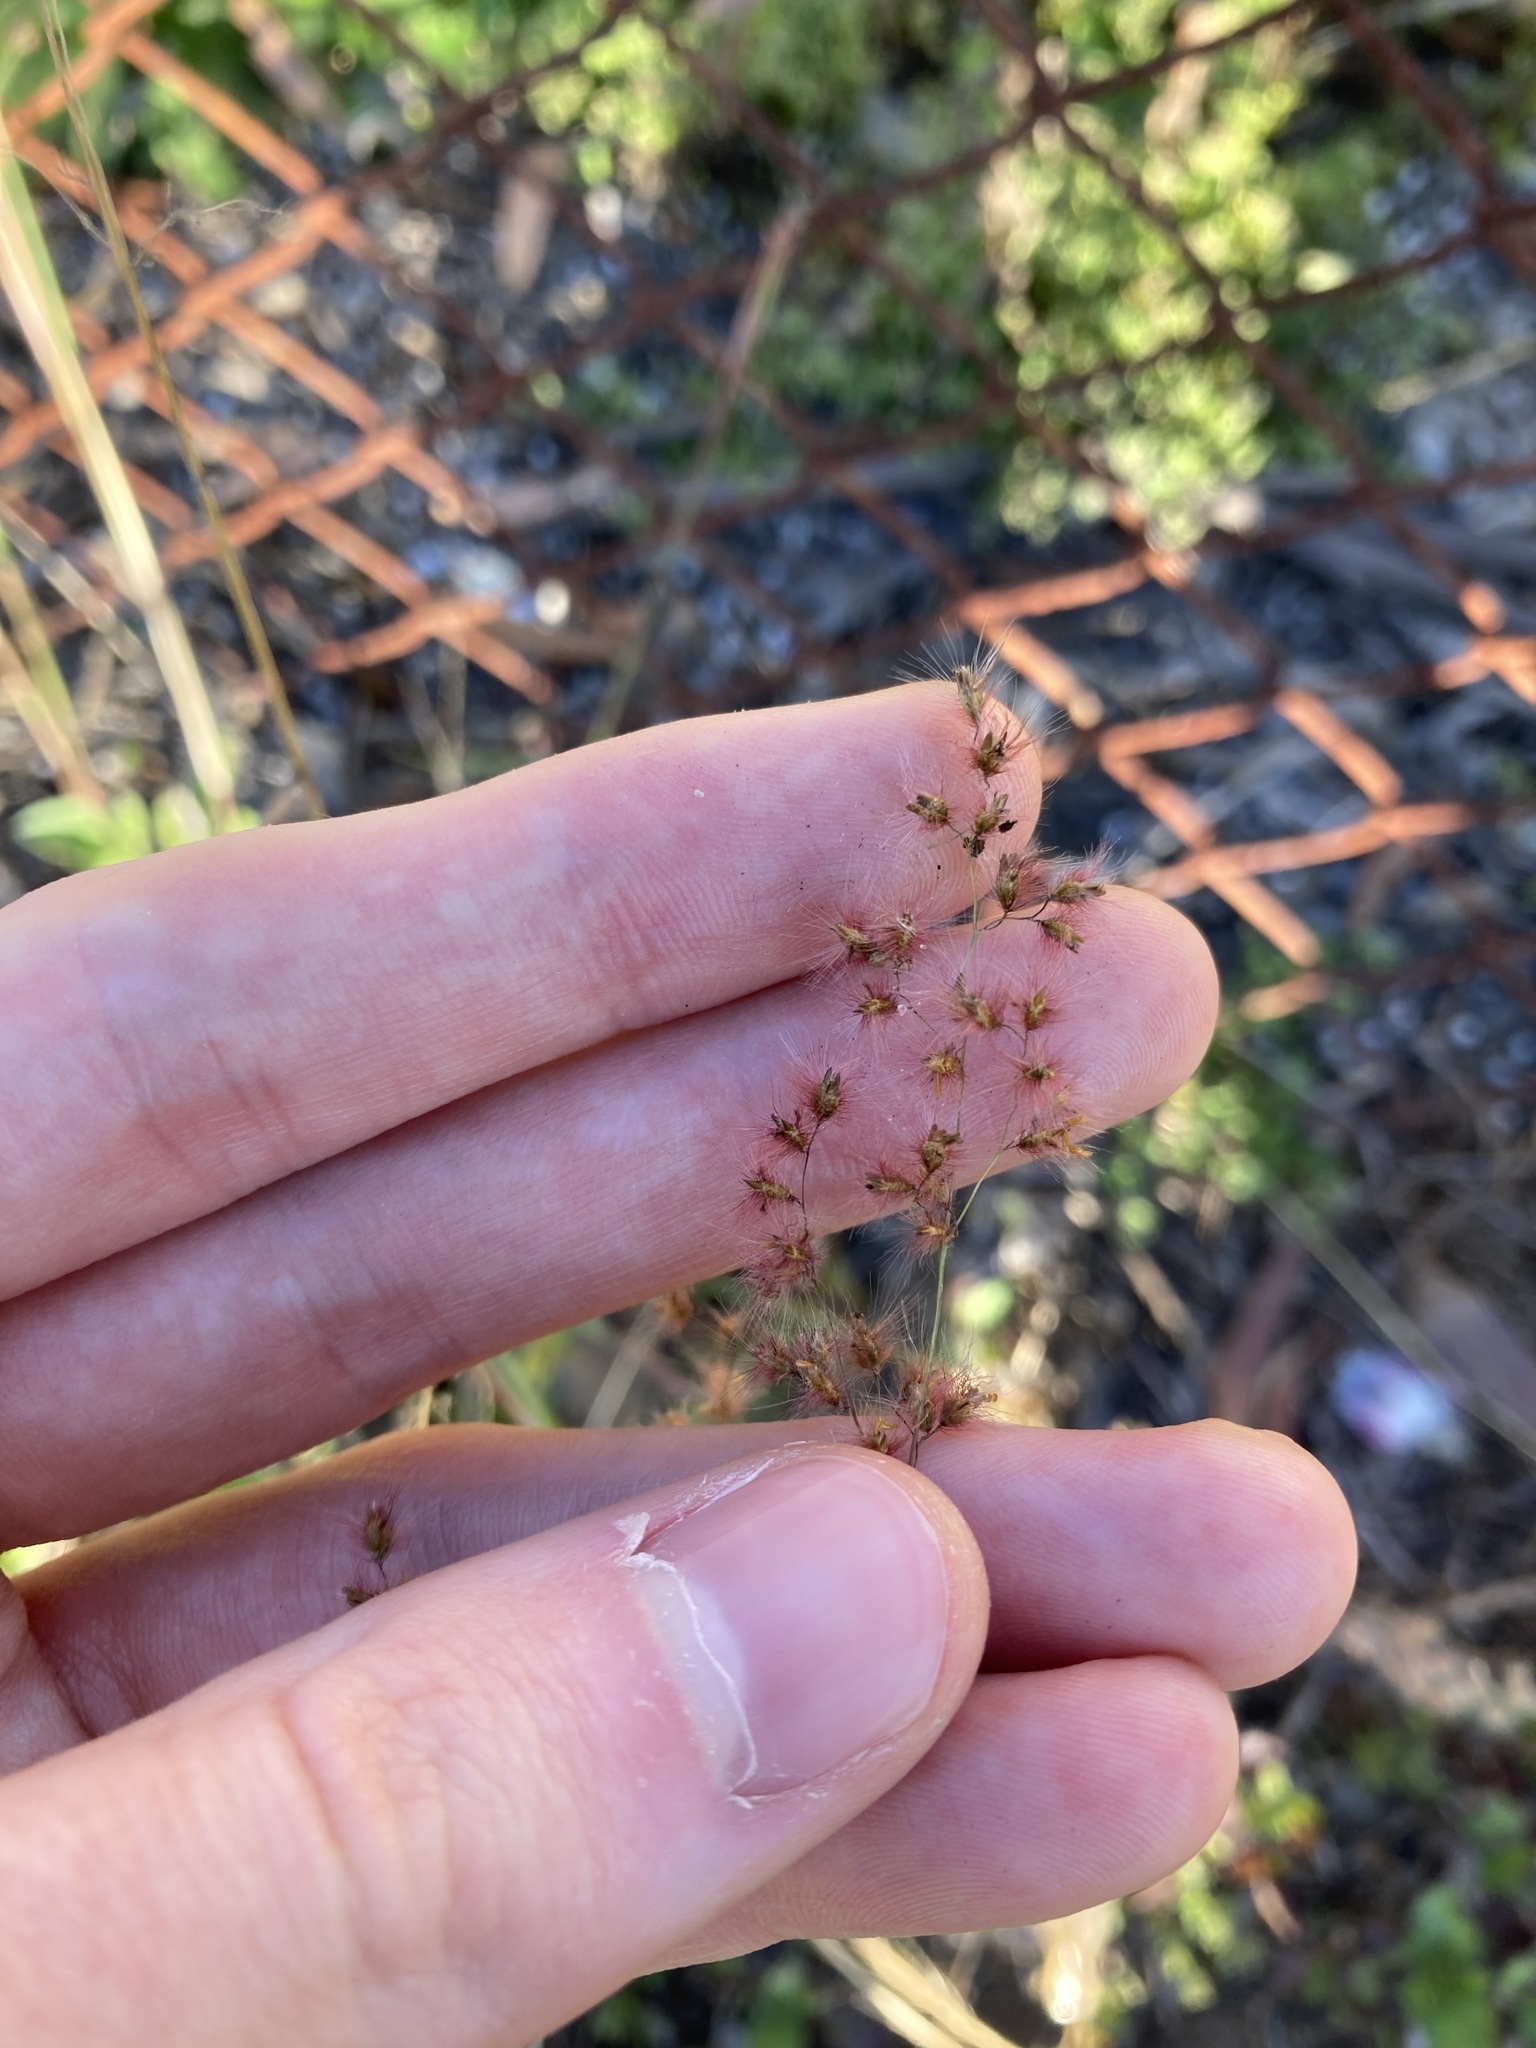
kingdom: Plantae
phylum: Tracheophyta
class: Liliopsida
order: Poales
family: Poaceae
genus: Melinis
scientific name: Melinis repens
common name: Rose natal grass
